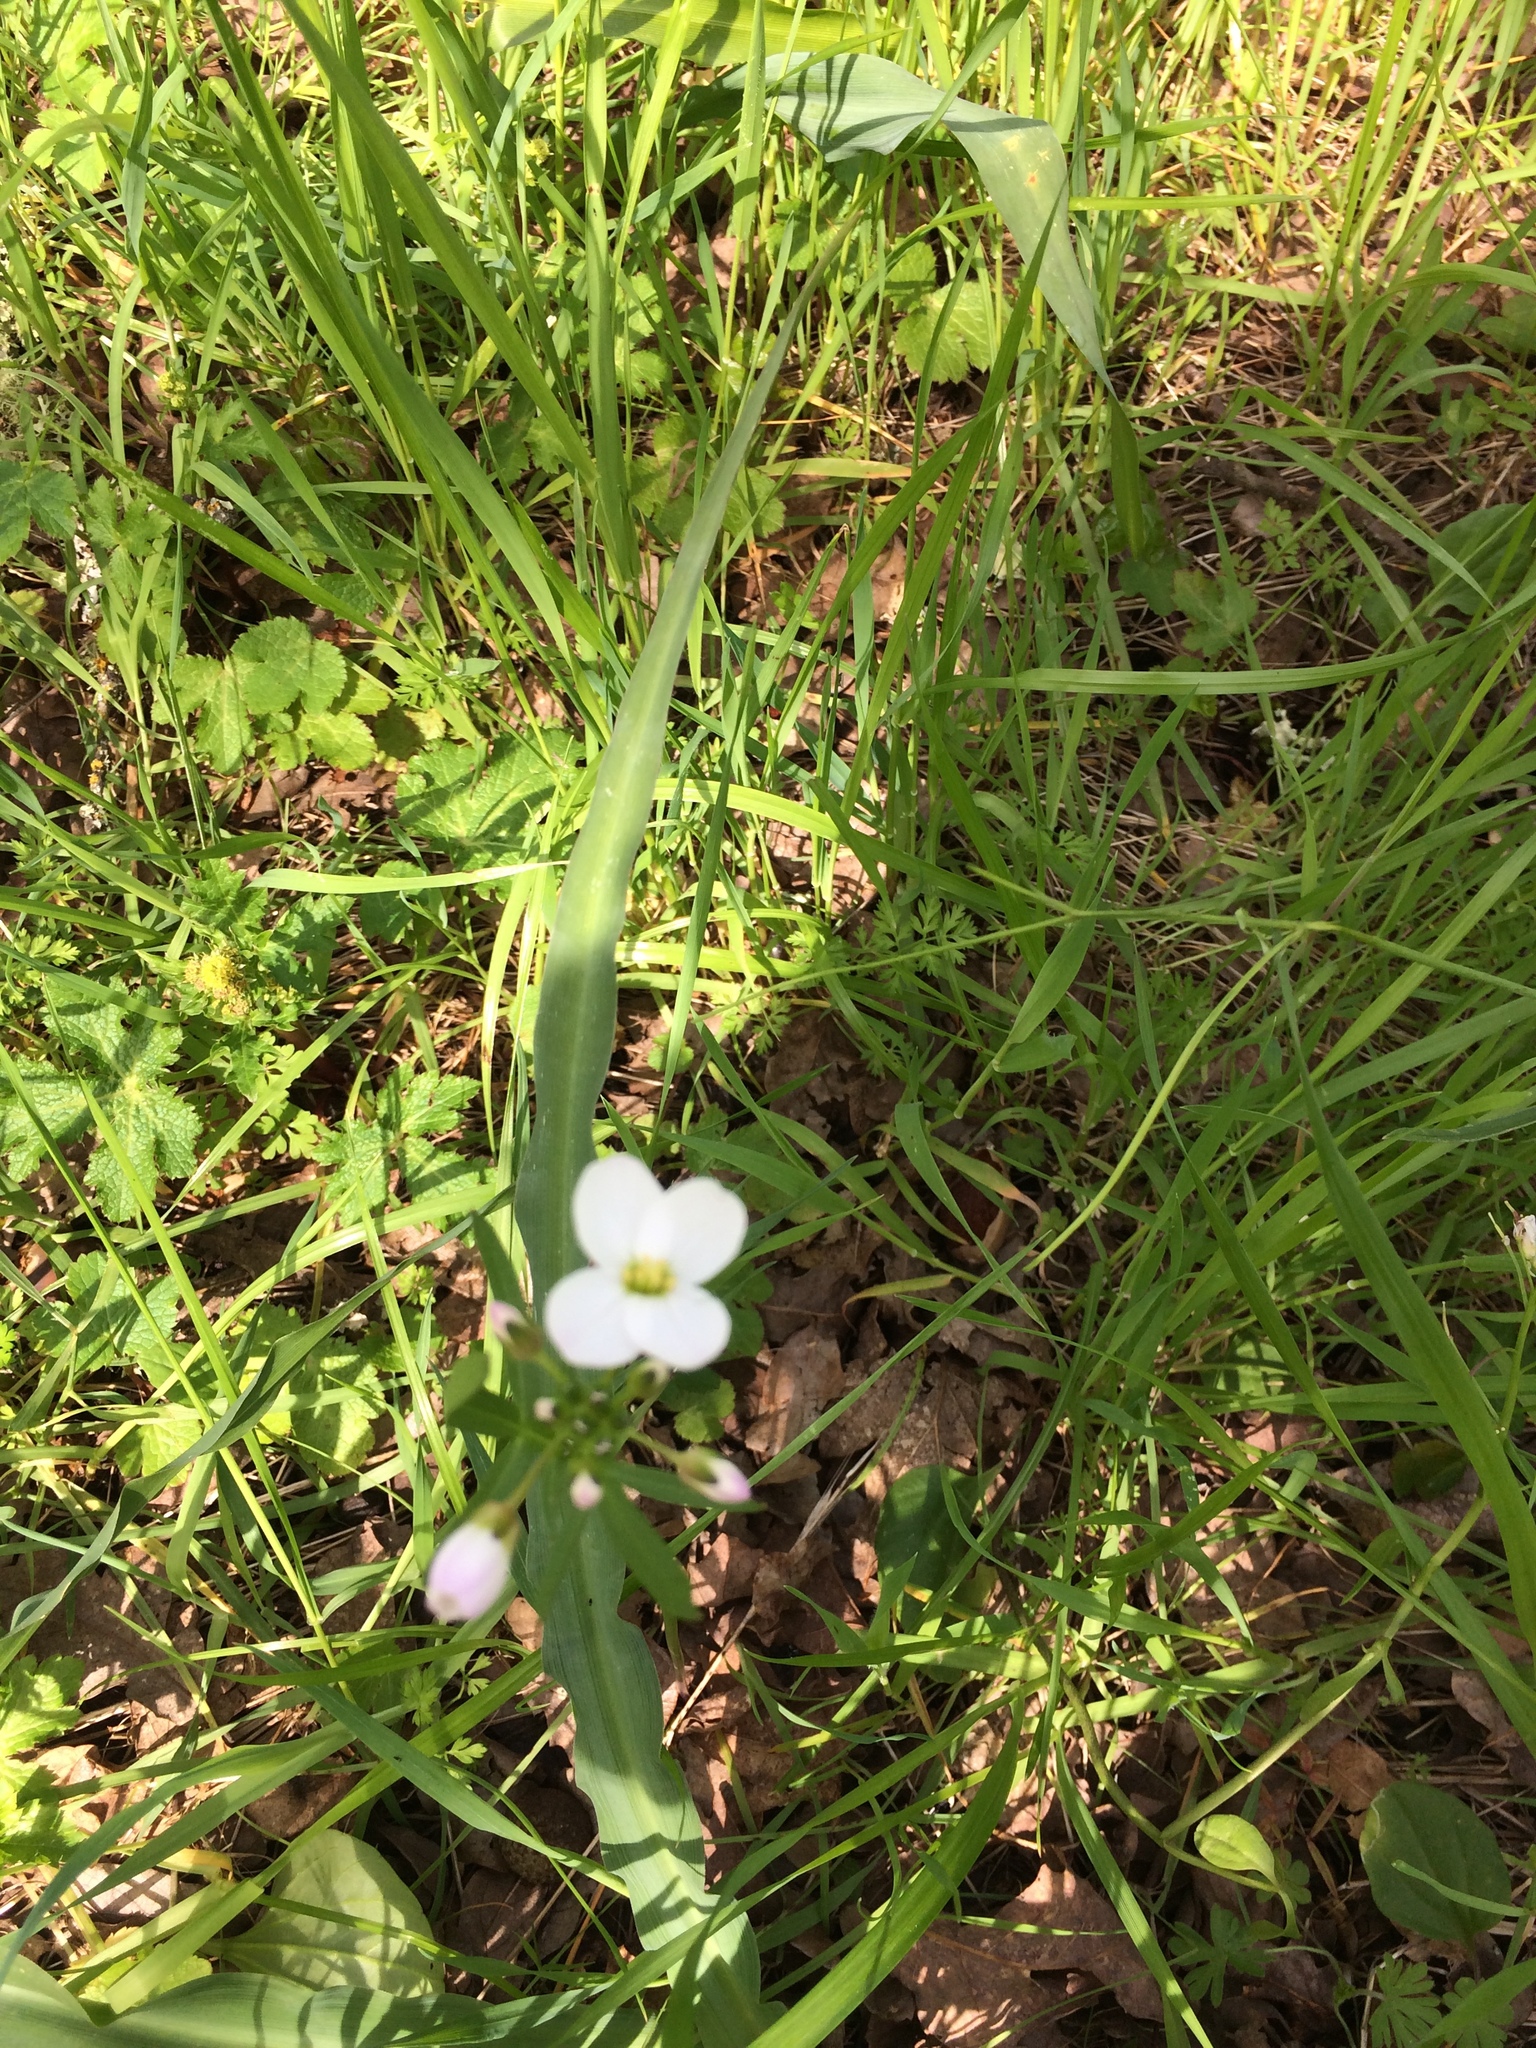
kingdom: Plantae
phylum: Tracheophyta
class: Magnoliopsida
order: Brassicales
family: Brassicaceae
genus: Cardamine
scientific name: Cardamine californica
